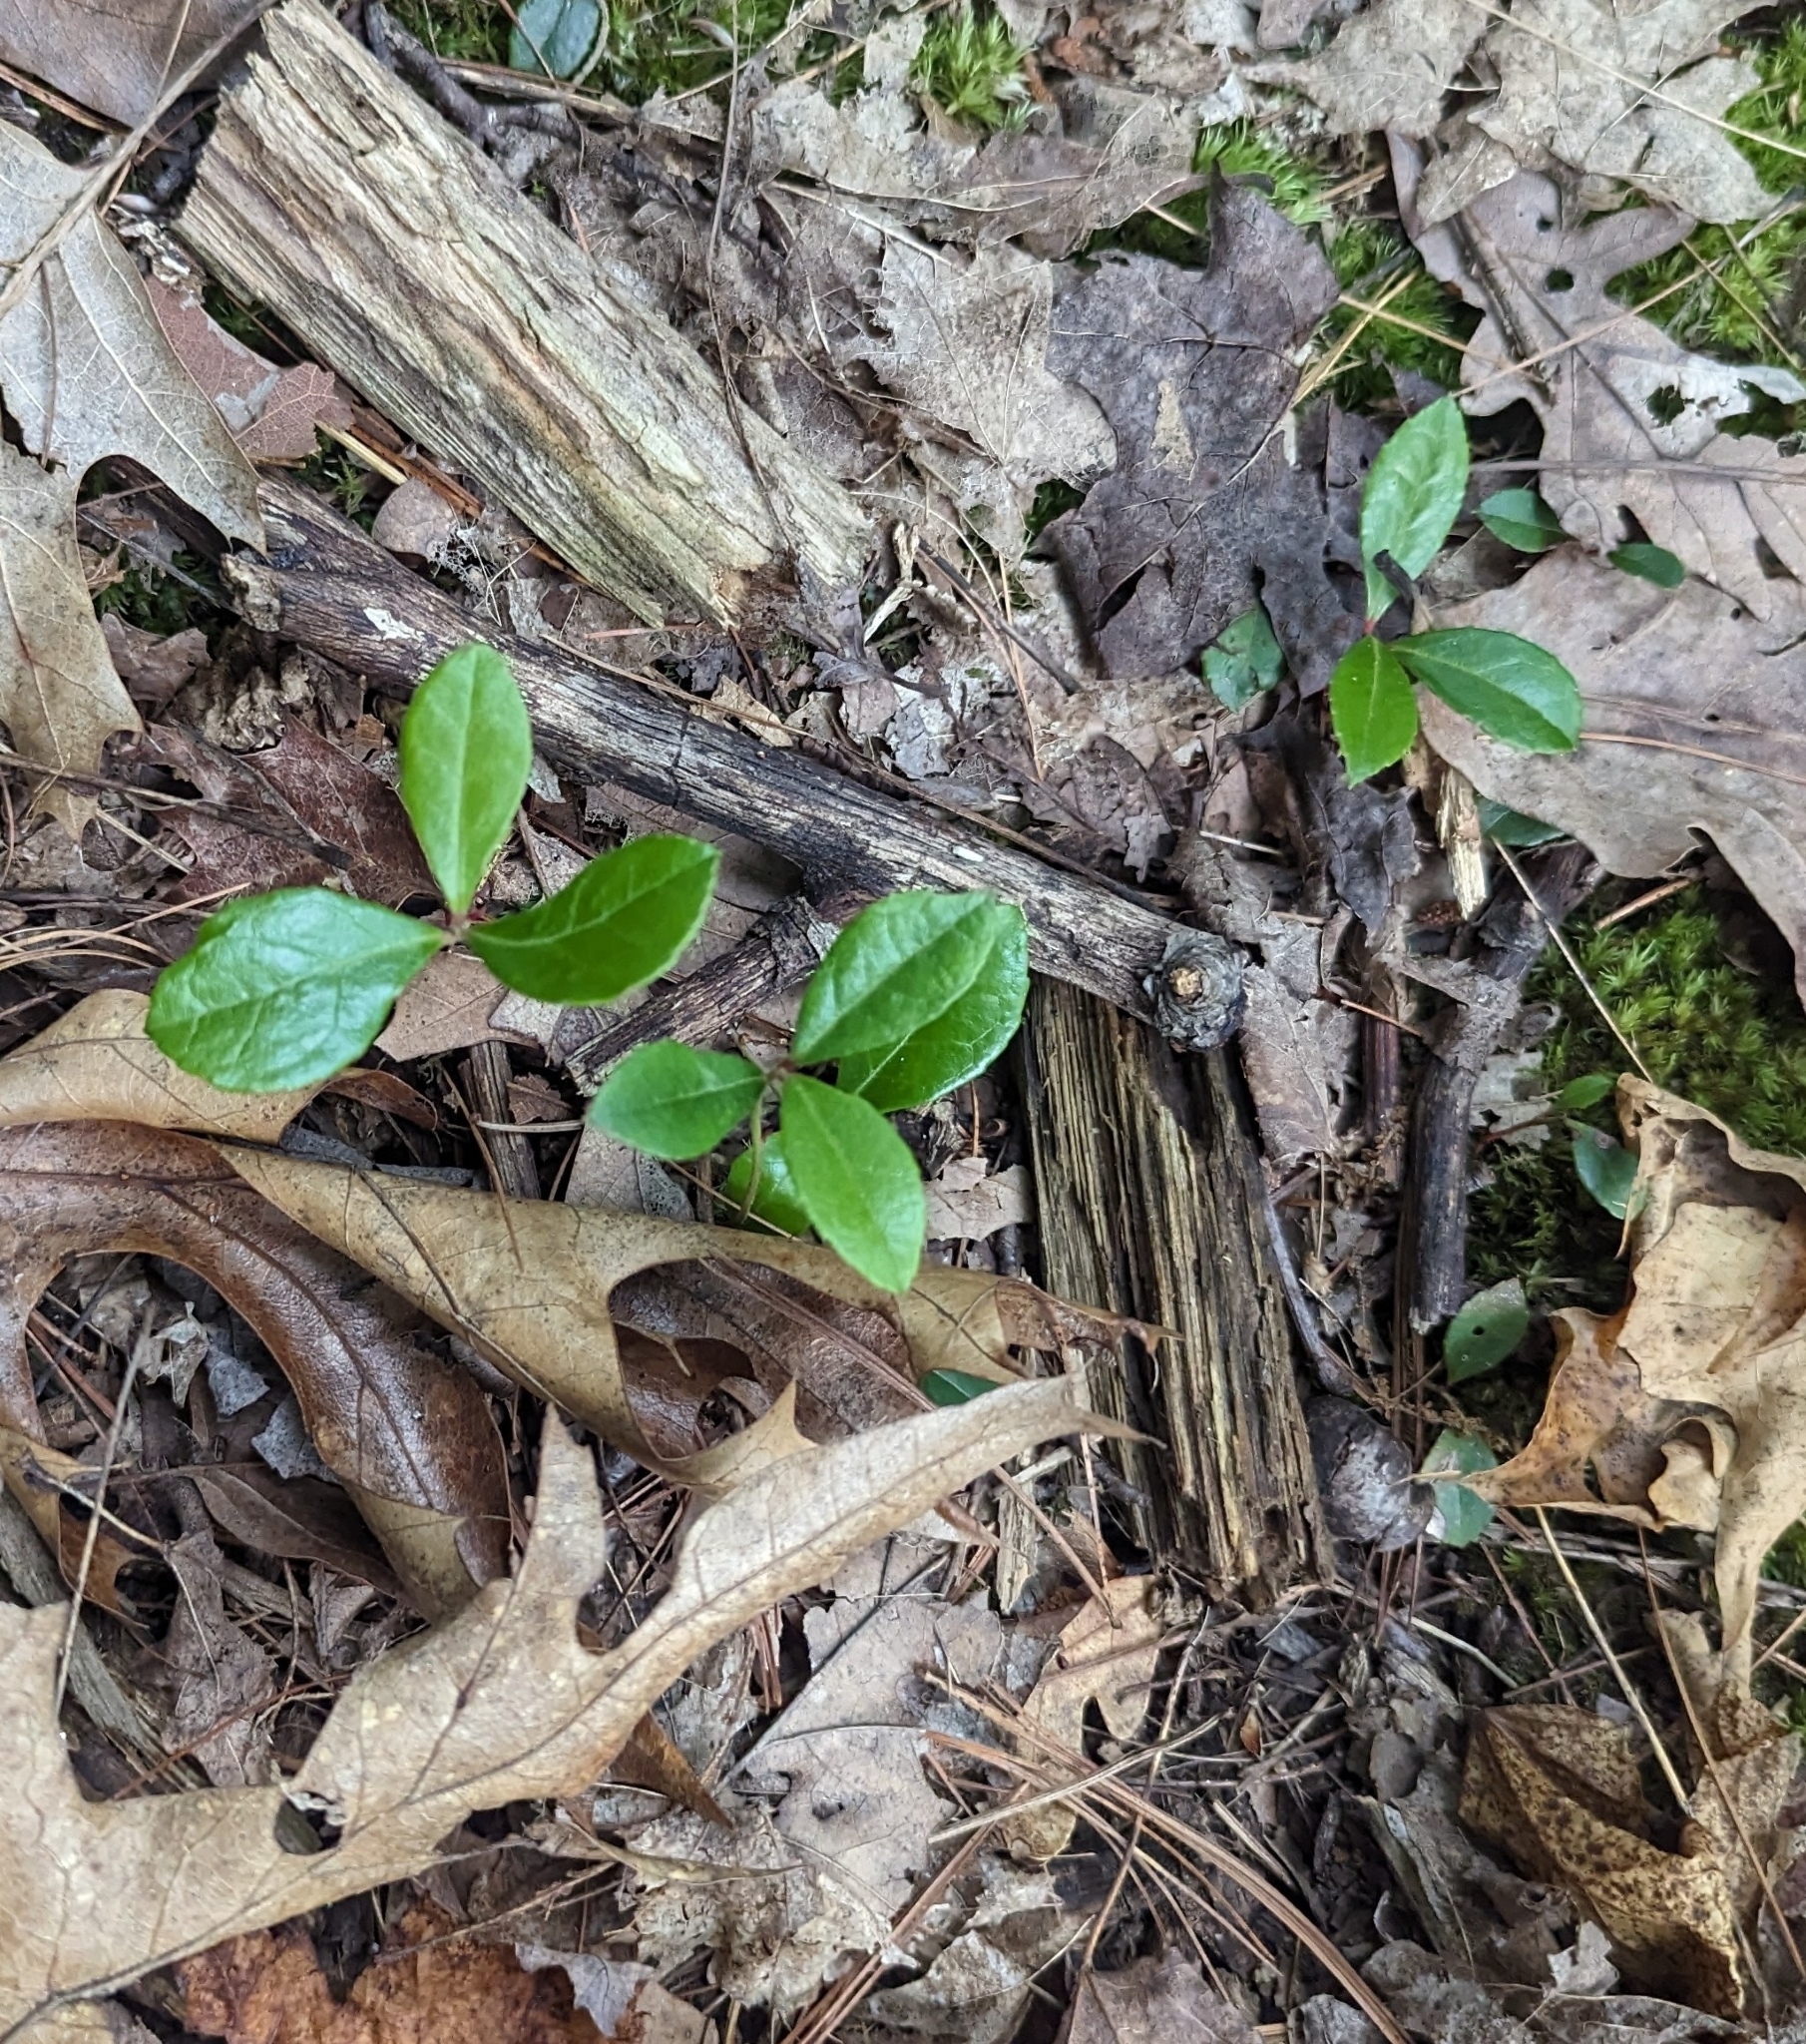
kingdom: Plantae
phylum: Tracheophyta
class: Magnoliopsida
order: Ericales
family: Ericaceae
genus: Gaultheria
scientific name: Gaultheria procumbens
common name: Checkerberry
